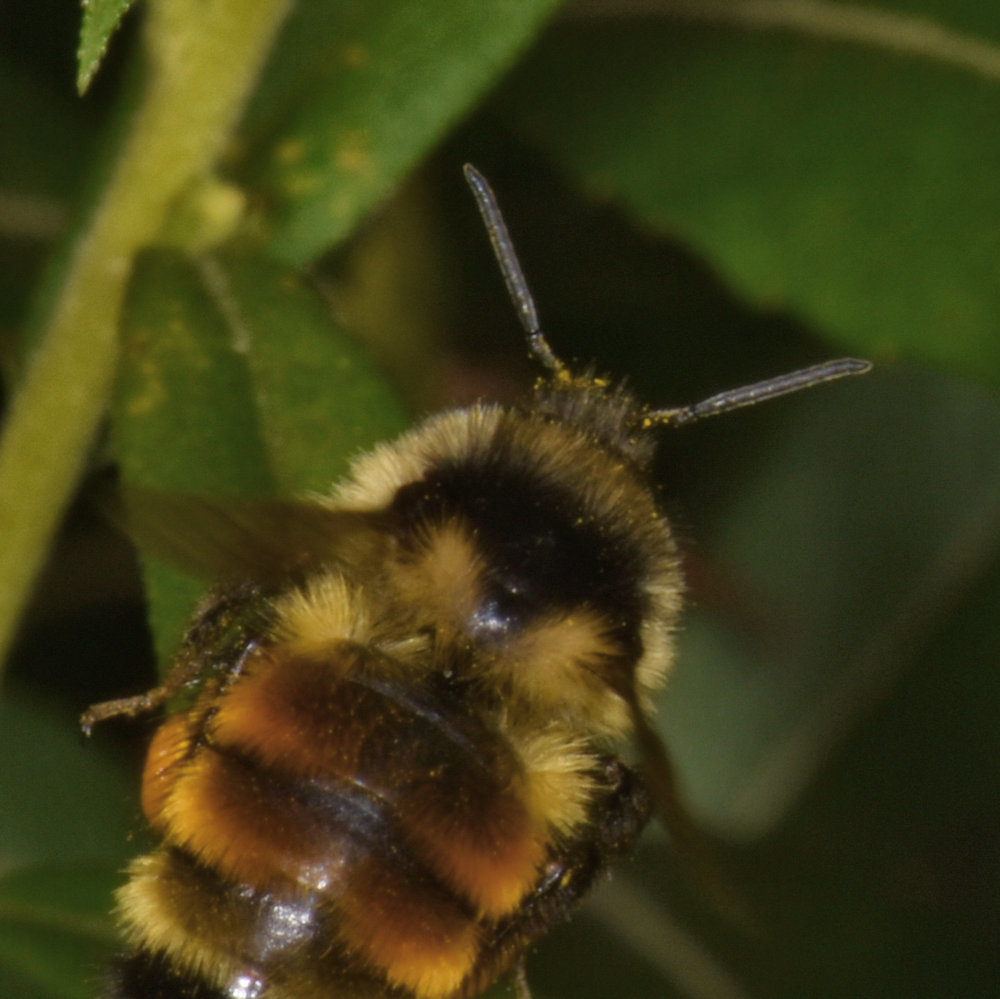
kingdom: Animalia
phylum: Arthropoda
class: Insecta
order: Hymenoptera
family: Apidae
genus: Bombus
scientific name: Bombus ternarius
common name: Tri-colored bumble bee
